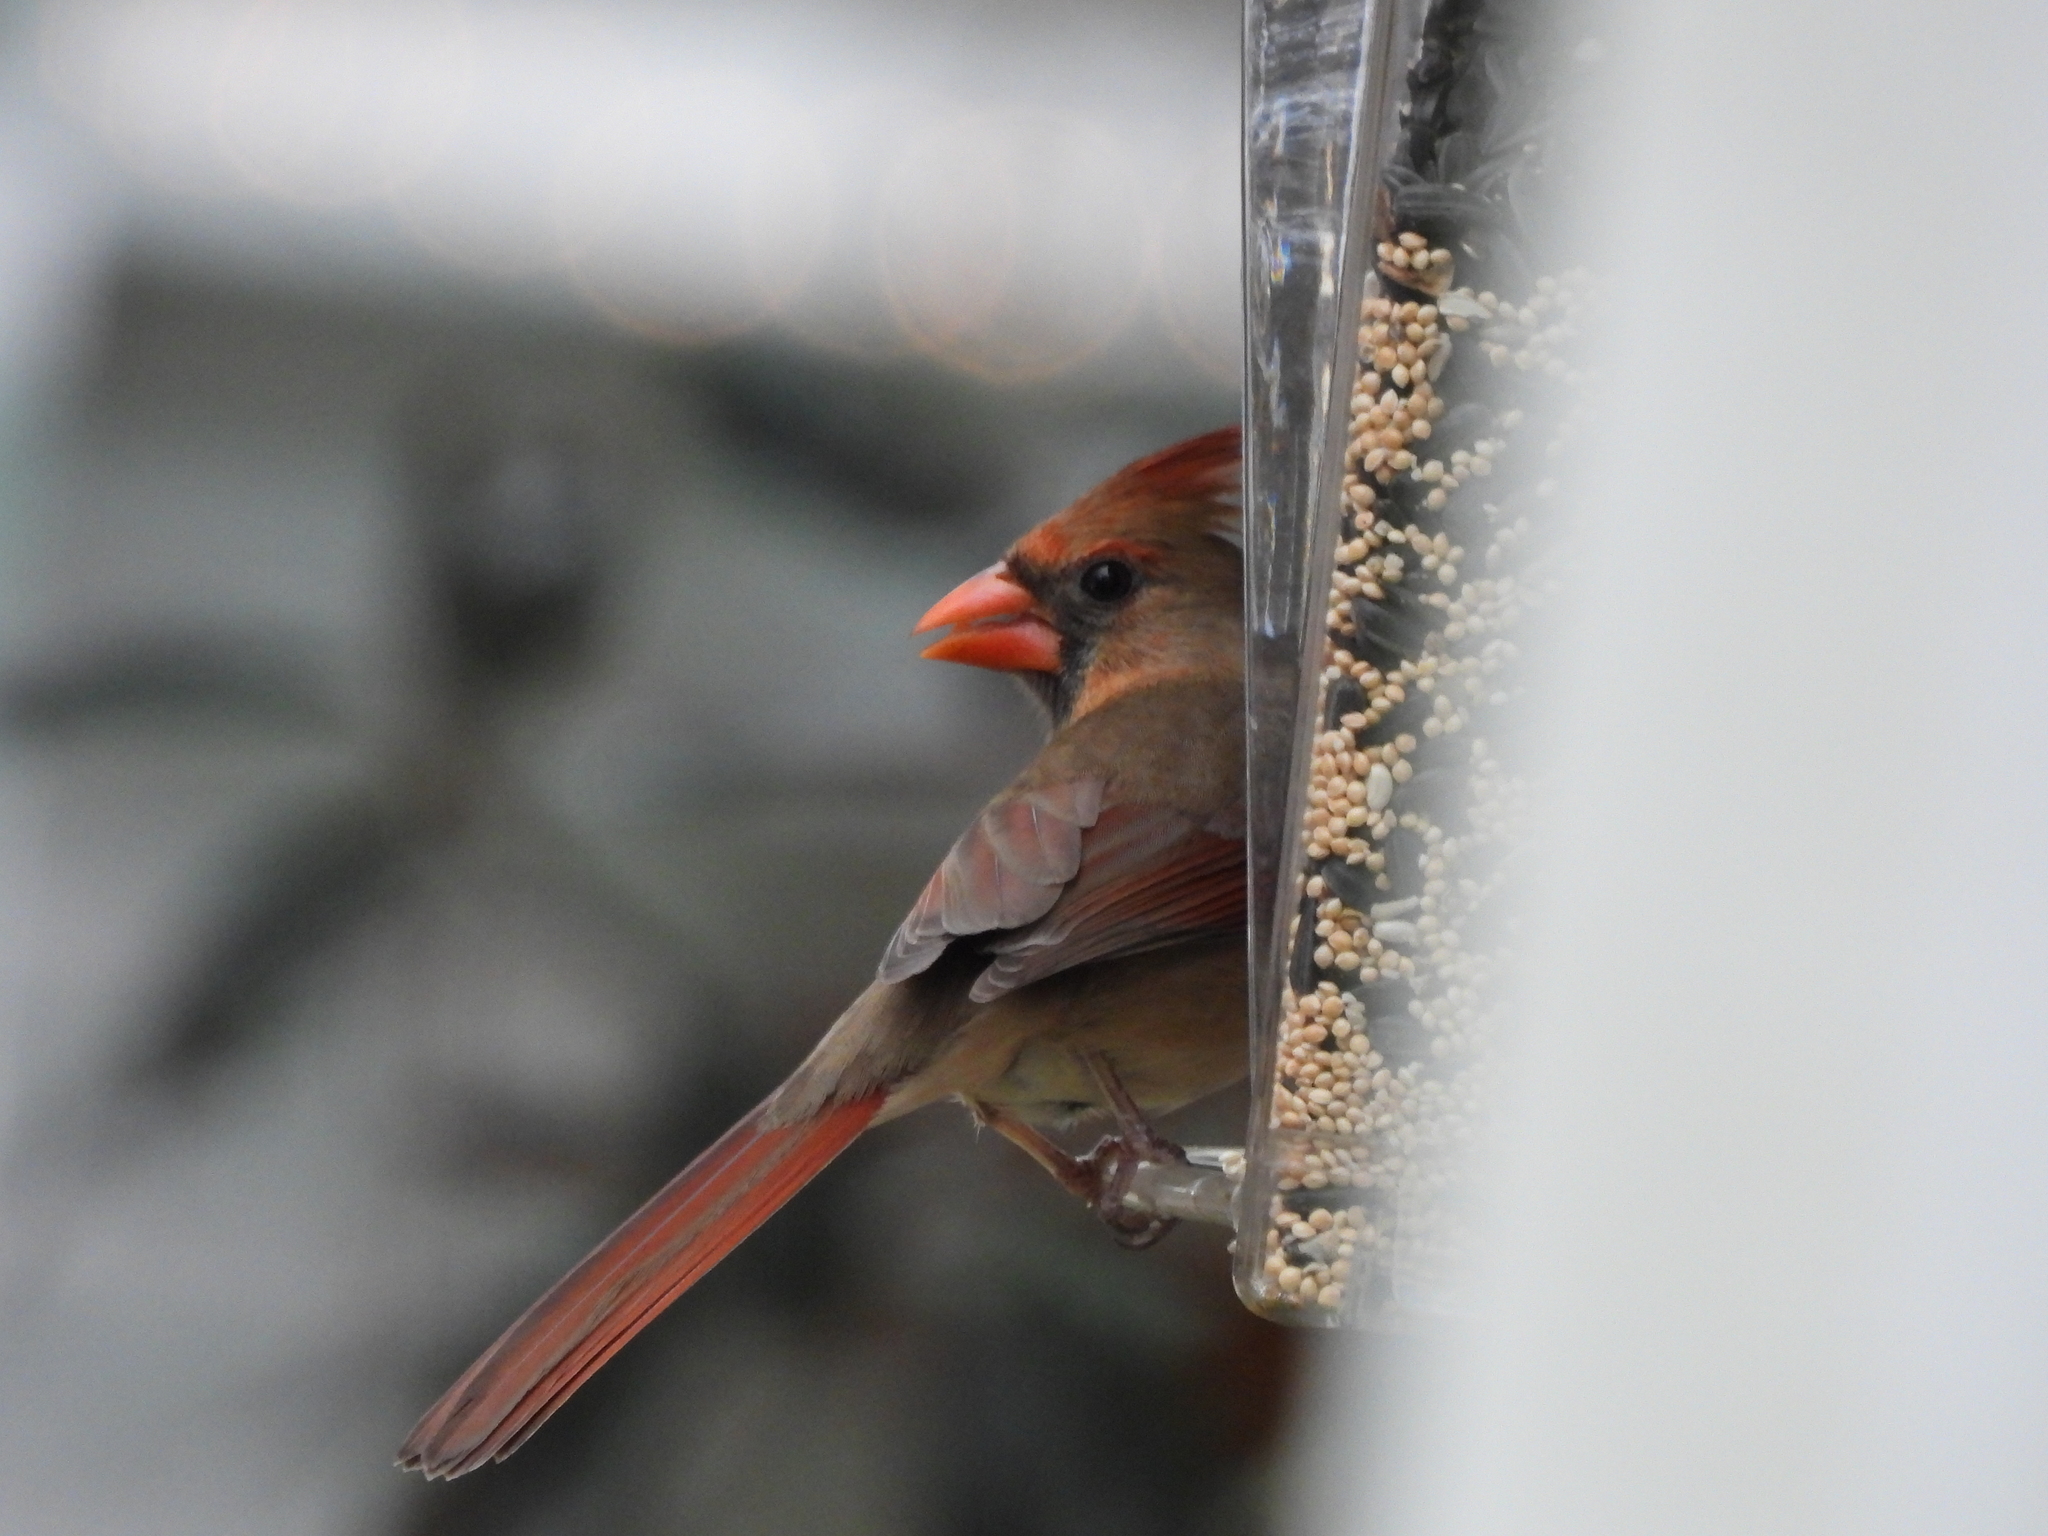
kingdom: Animalia
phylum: Chordata
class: Aves
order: Passeriformes
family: Cardinalidae
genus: Cardinalis
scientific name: Cardinalis cardinalis
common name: Northern cardinal
